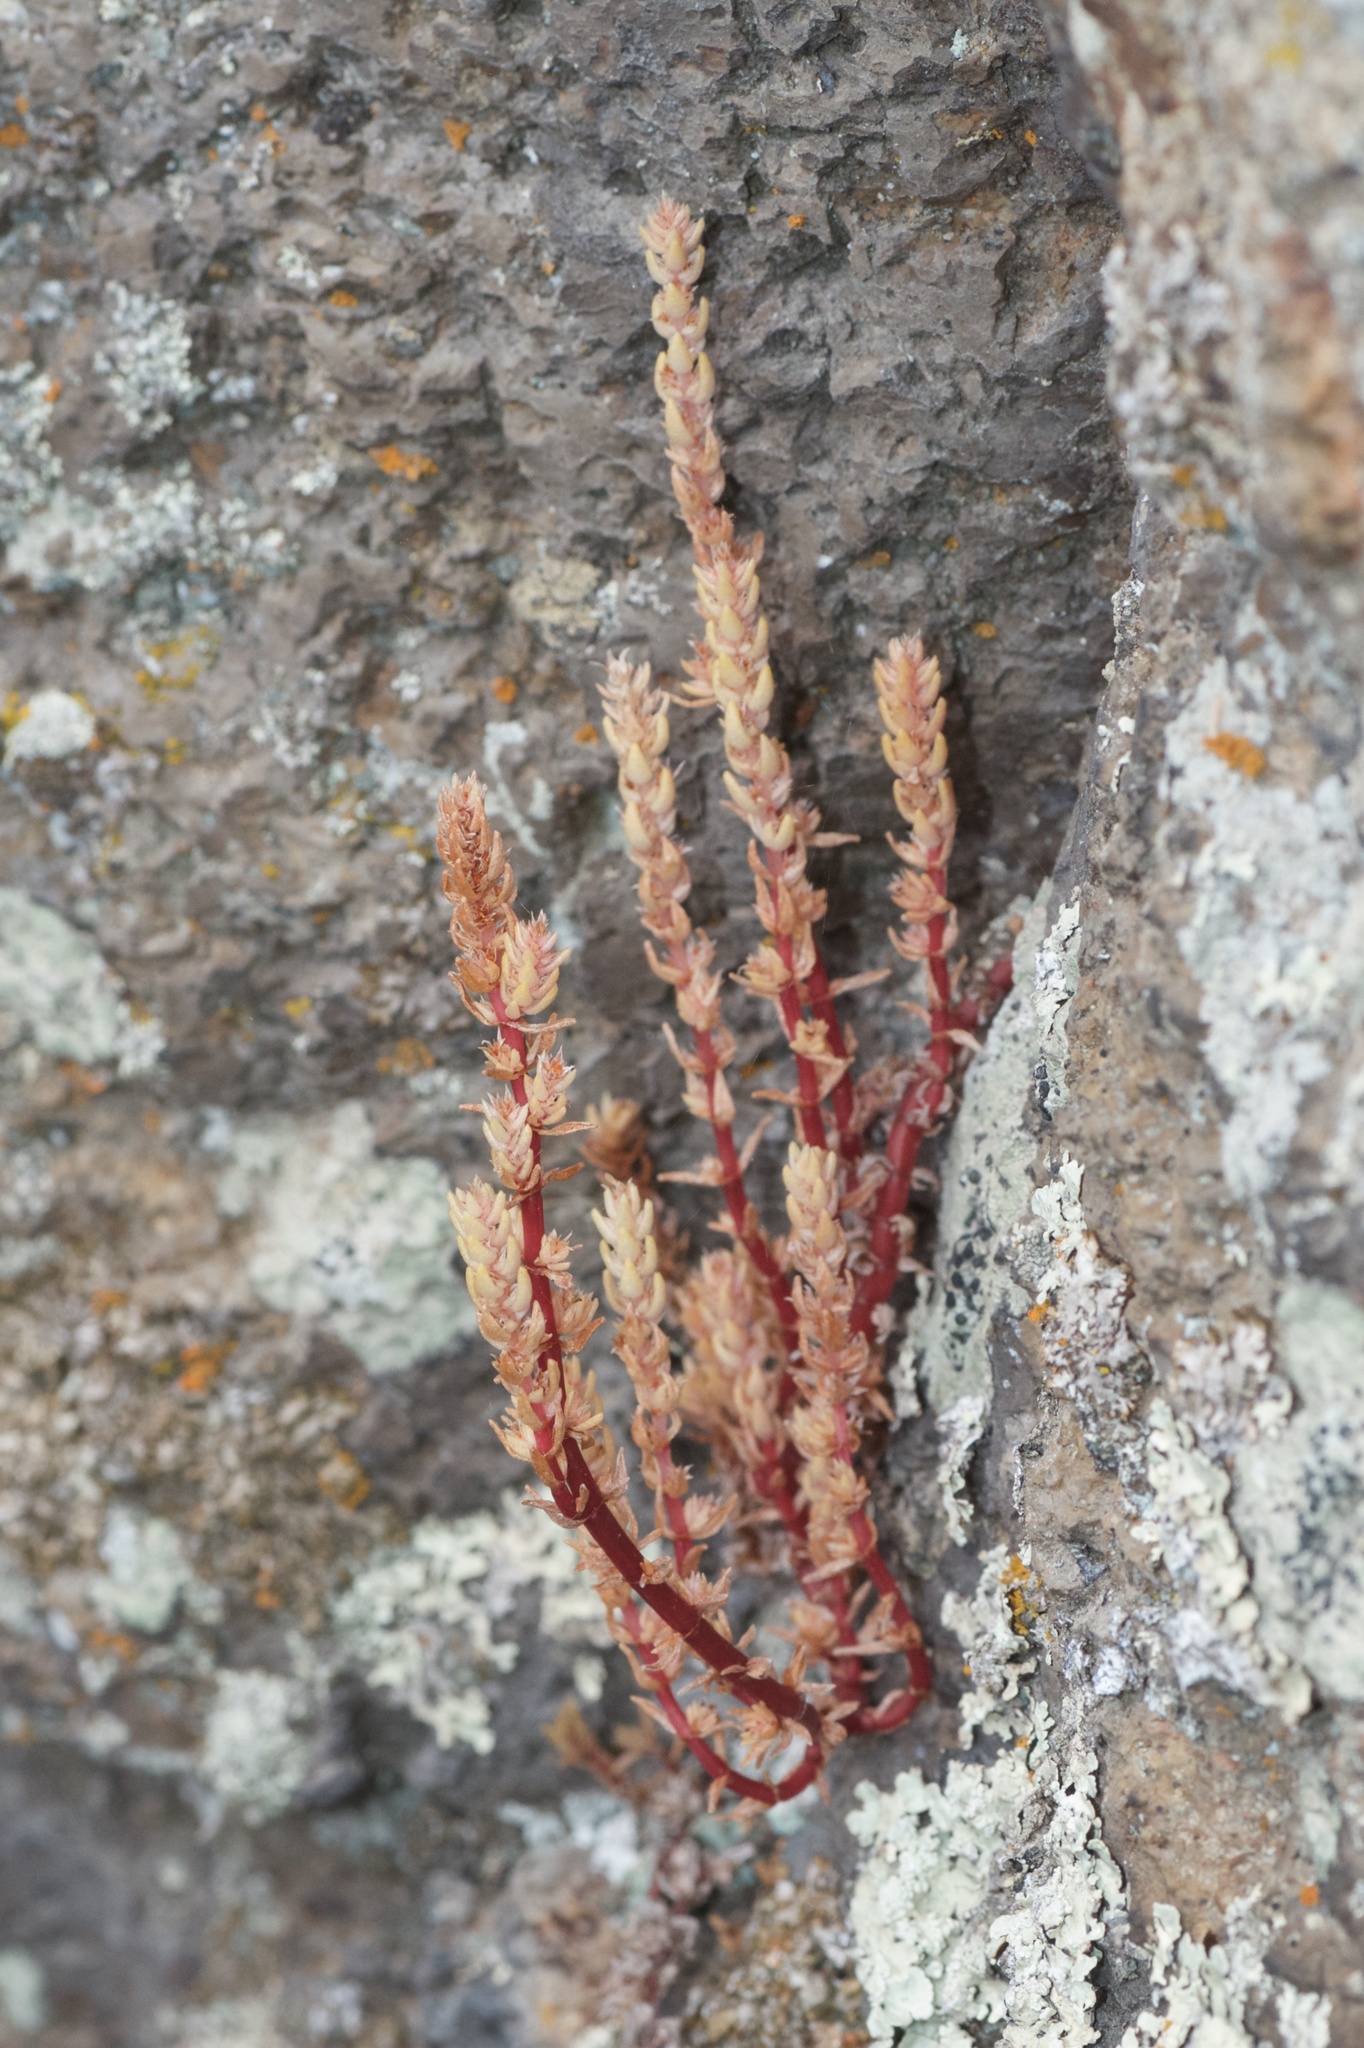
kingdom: Plantae
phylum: Tracheophyta
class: Magnoliopsida
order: Saxifragales
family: Crassulaceae
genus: Crassula
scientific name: Crassula sieberiana
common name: Siberian pygmyweed
